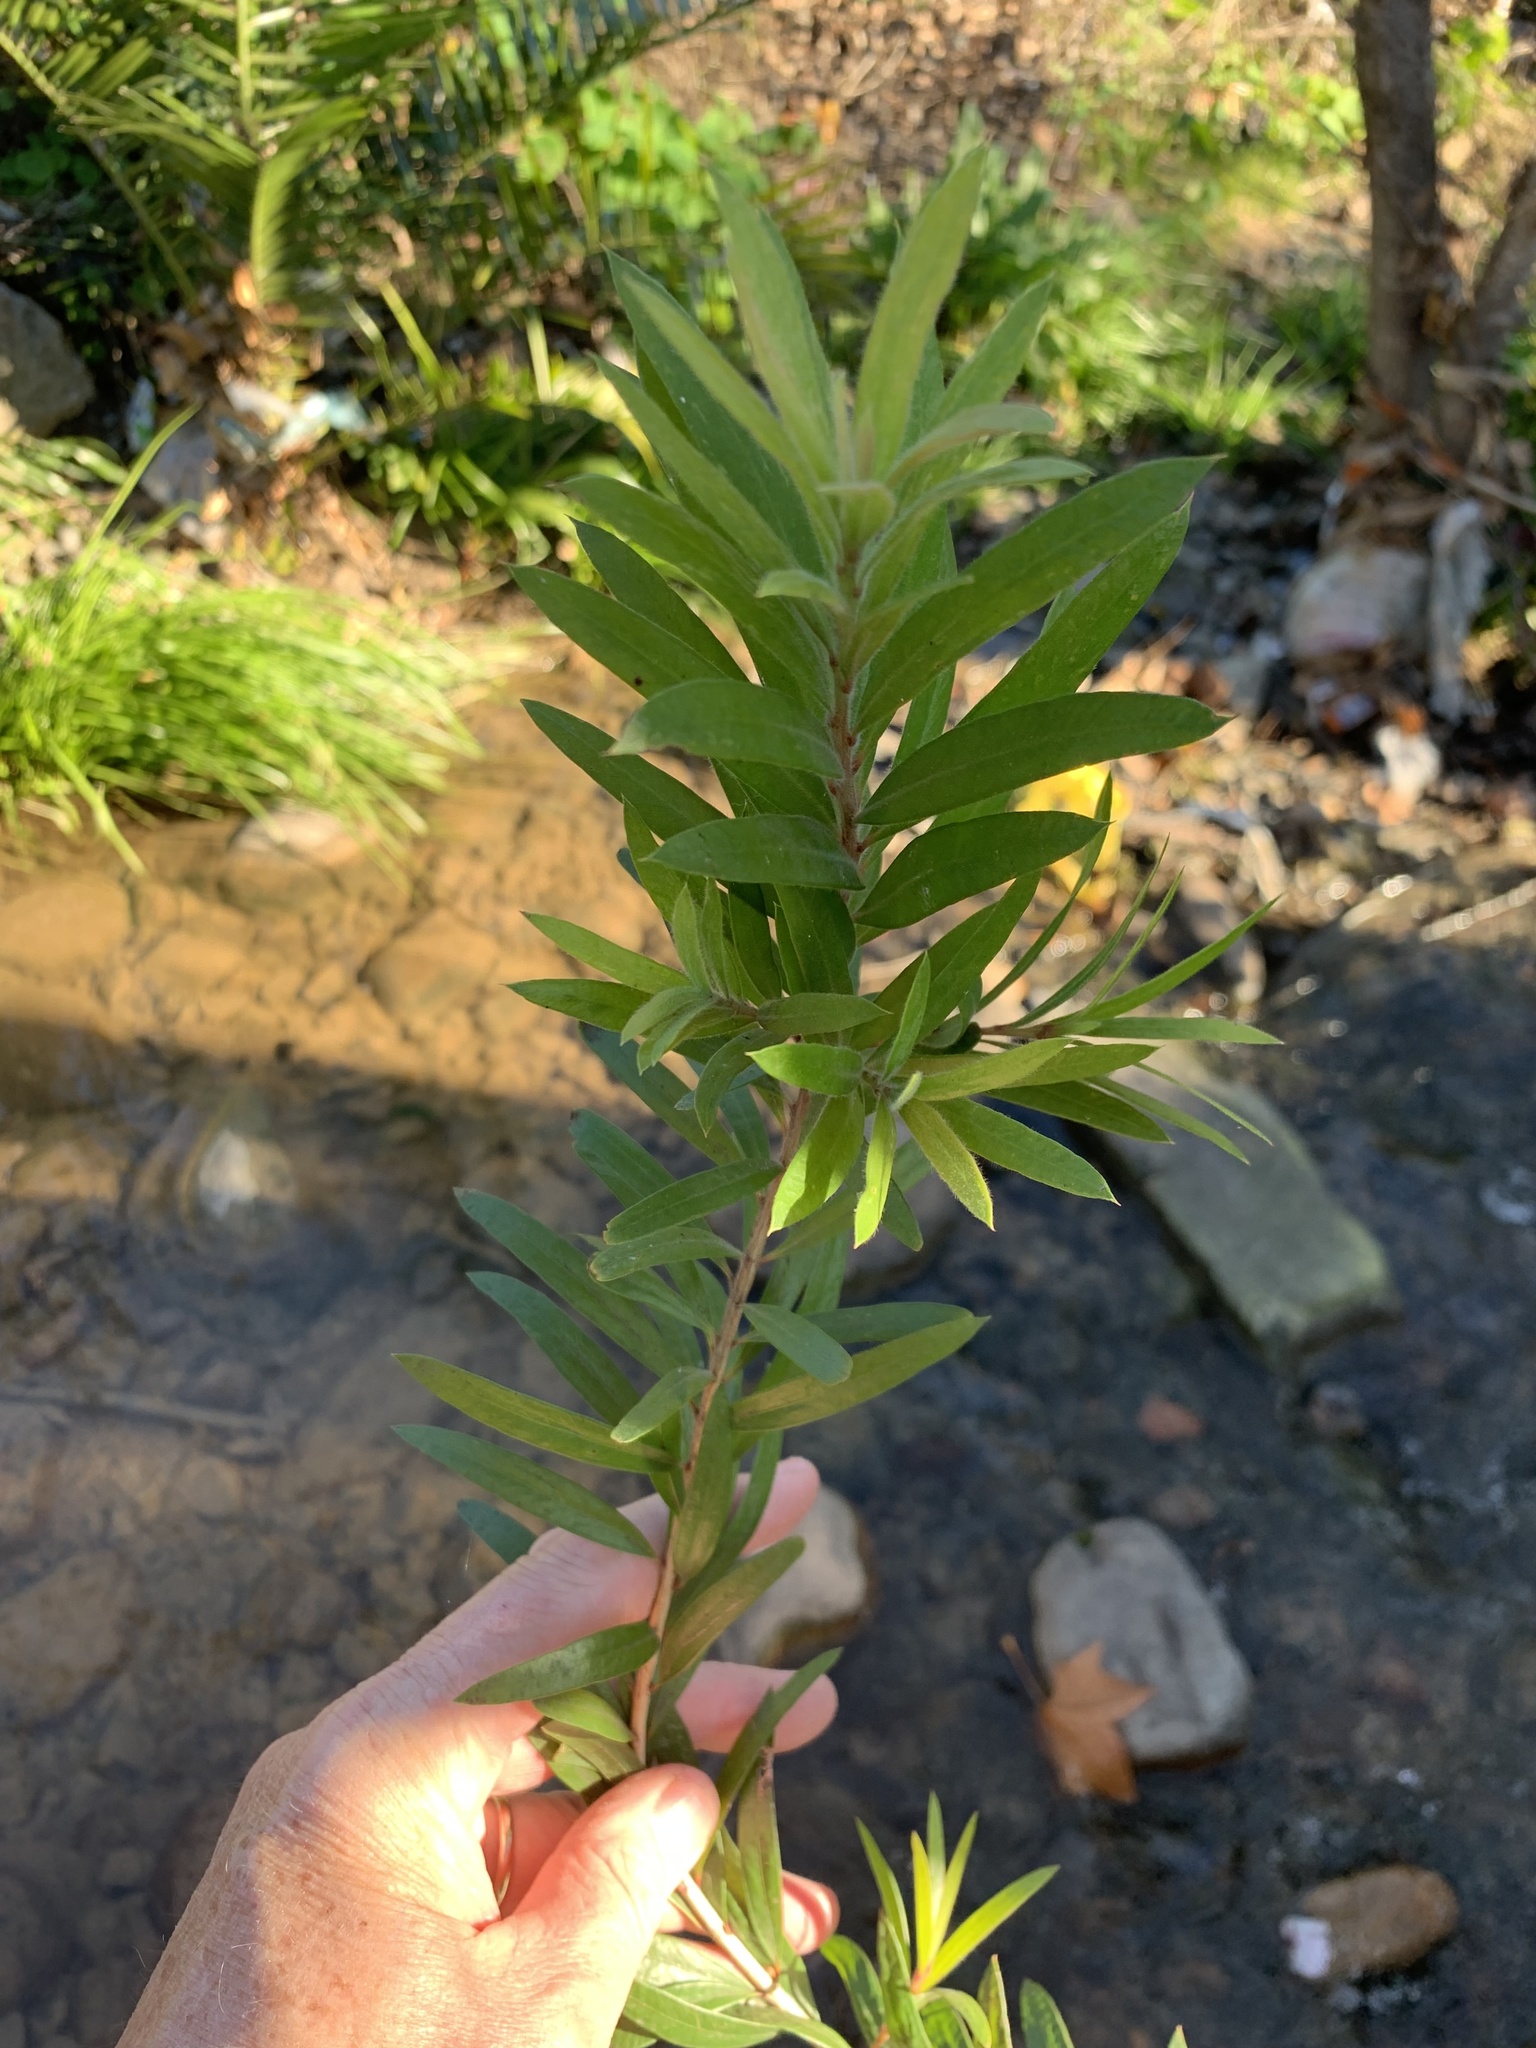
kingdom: Plantae
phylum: Tracheophyta
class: Magnoliopsida
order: Myrtales
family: Myrtaceae
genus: Callistemon
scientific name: Callistemon viminalis
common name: Drooping bottlebrush
